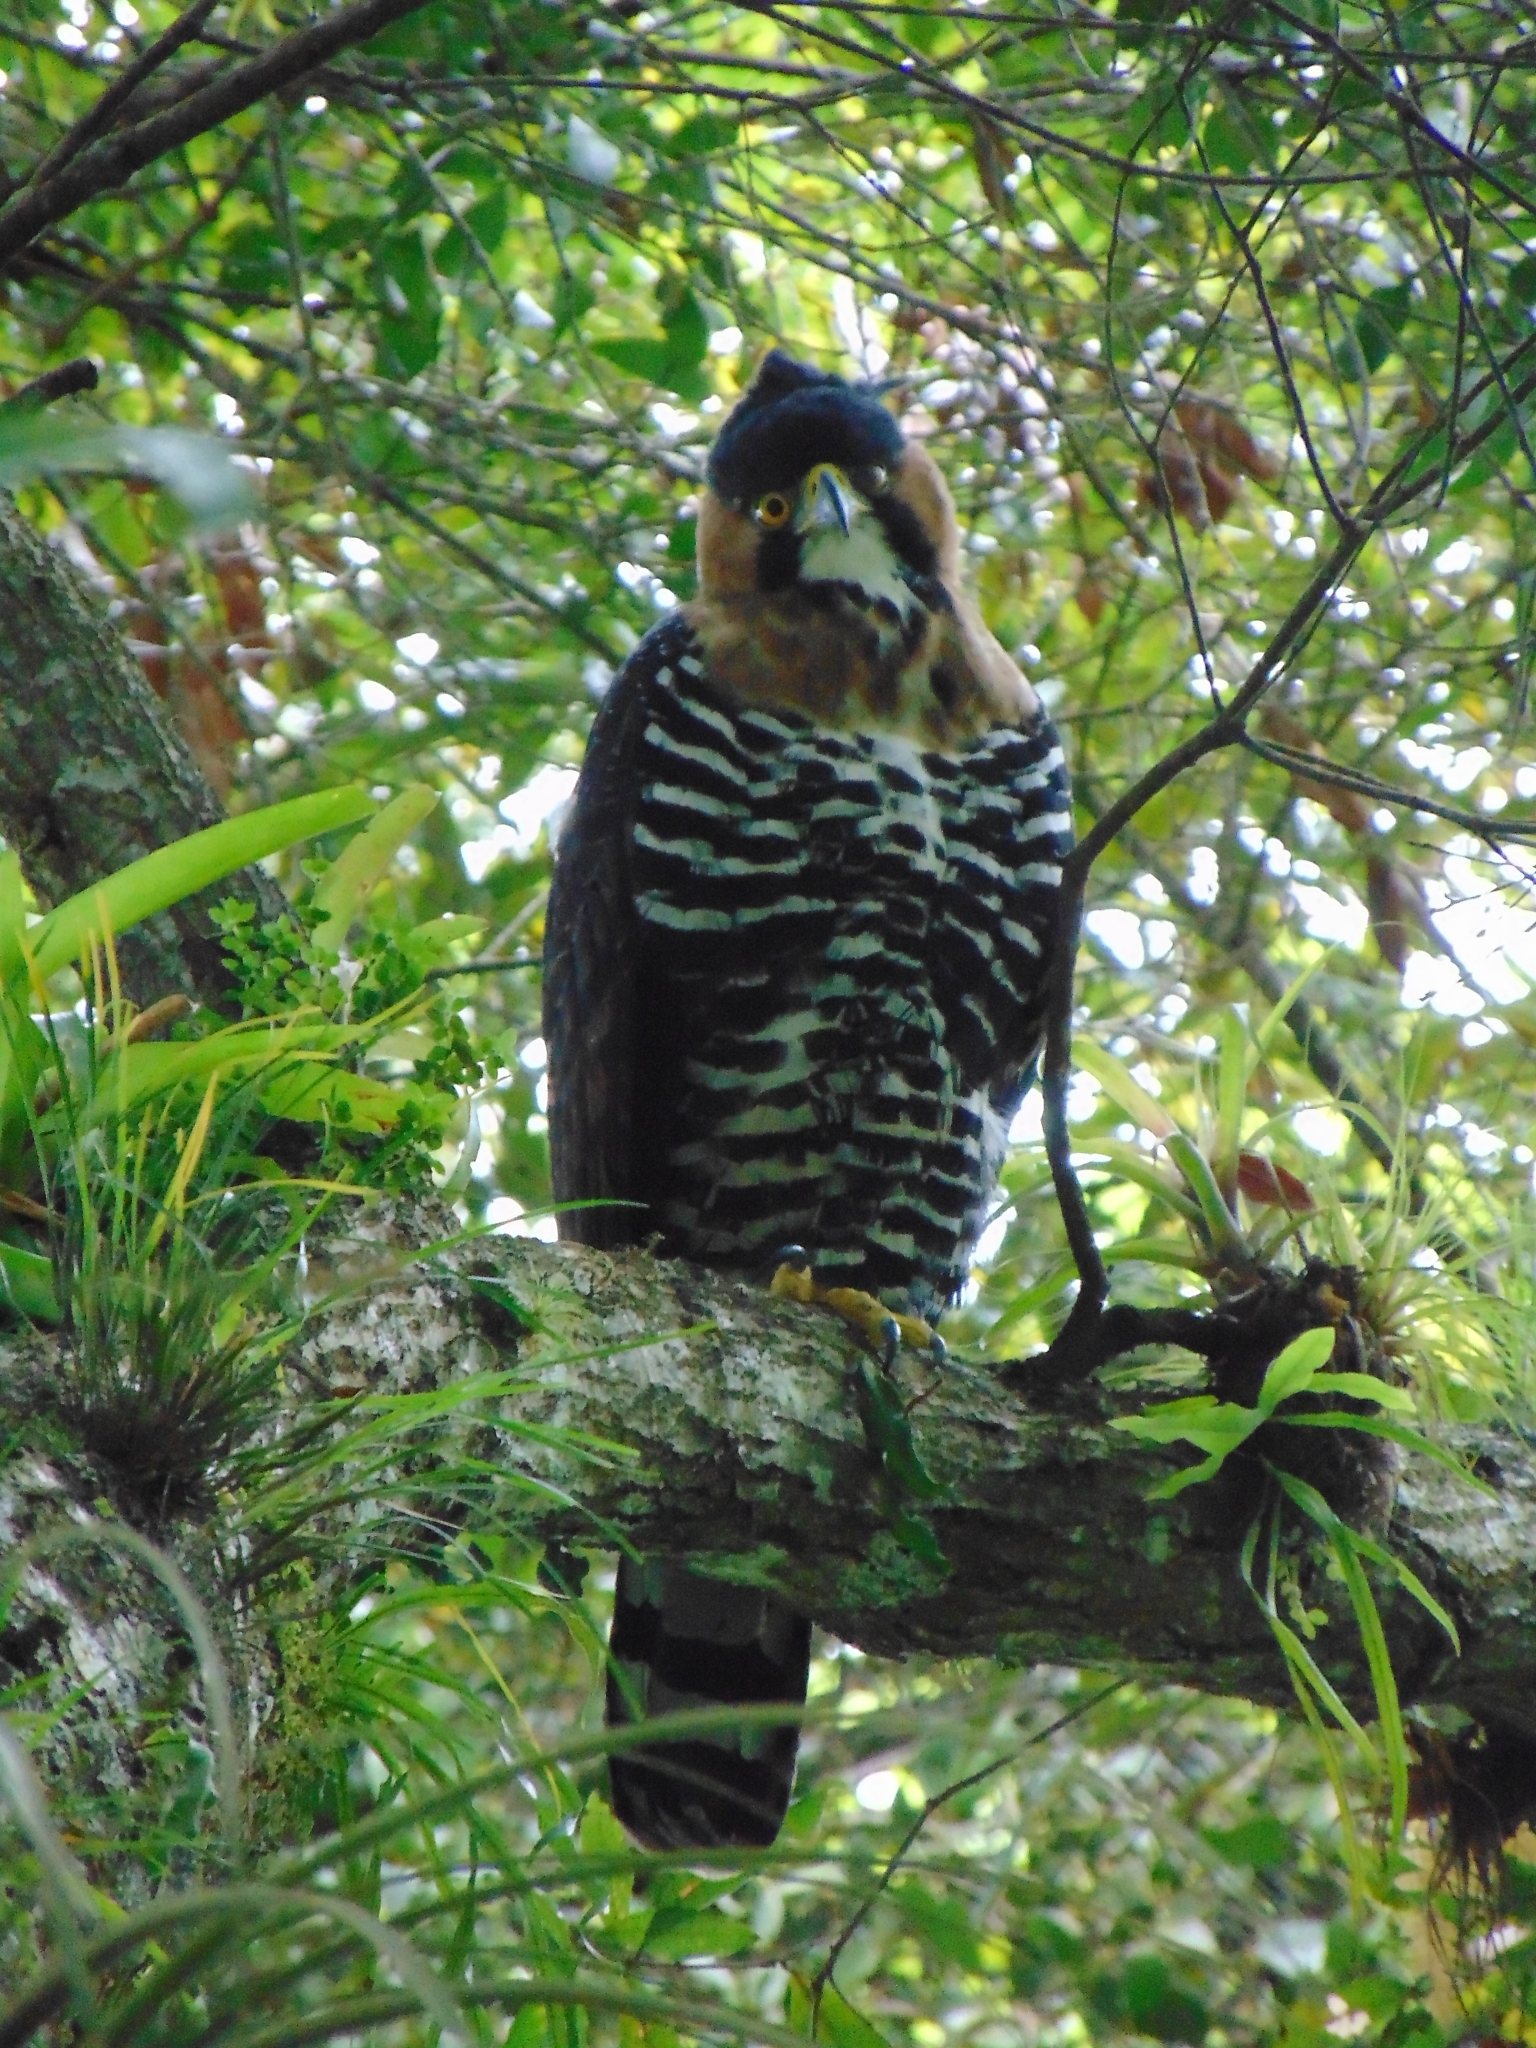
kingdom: Animalia
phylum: Chordata
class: Aves
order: Accipitriformes
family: Accipitridae
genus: Spizaetus
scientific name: Spizaetus ornatus
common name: Ornate hawk-eagle
